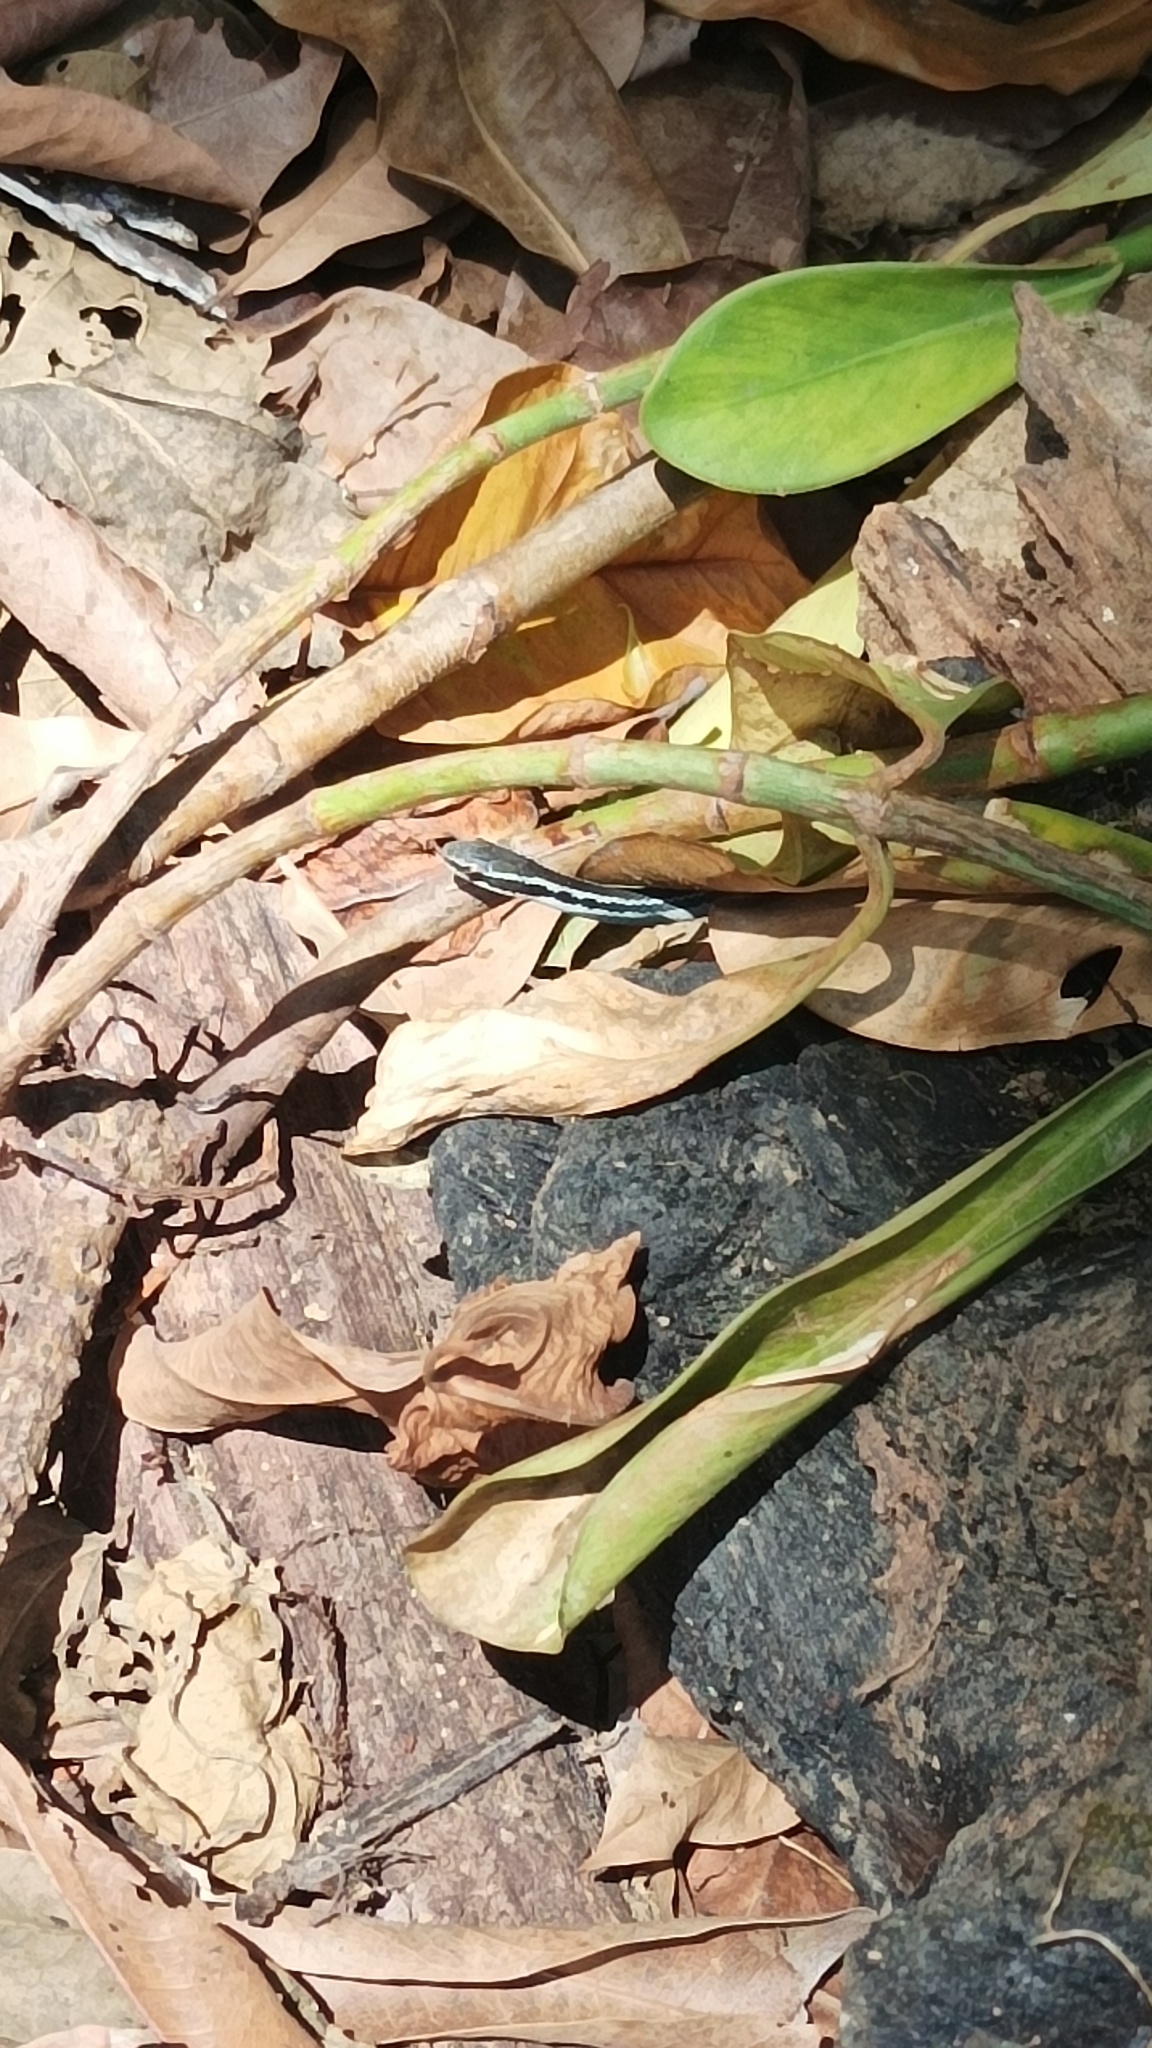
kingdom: Animalia
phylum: Chordata
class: Squamata
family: Colubridae
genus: Hypsirhynchus
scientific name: Hypsirhynchus parvifrons
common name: Cope's antilles snake
